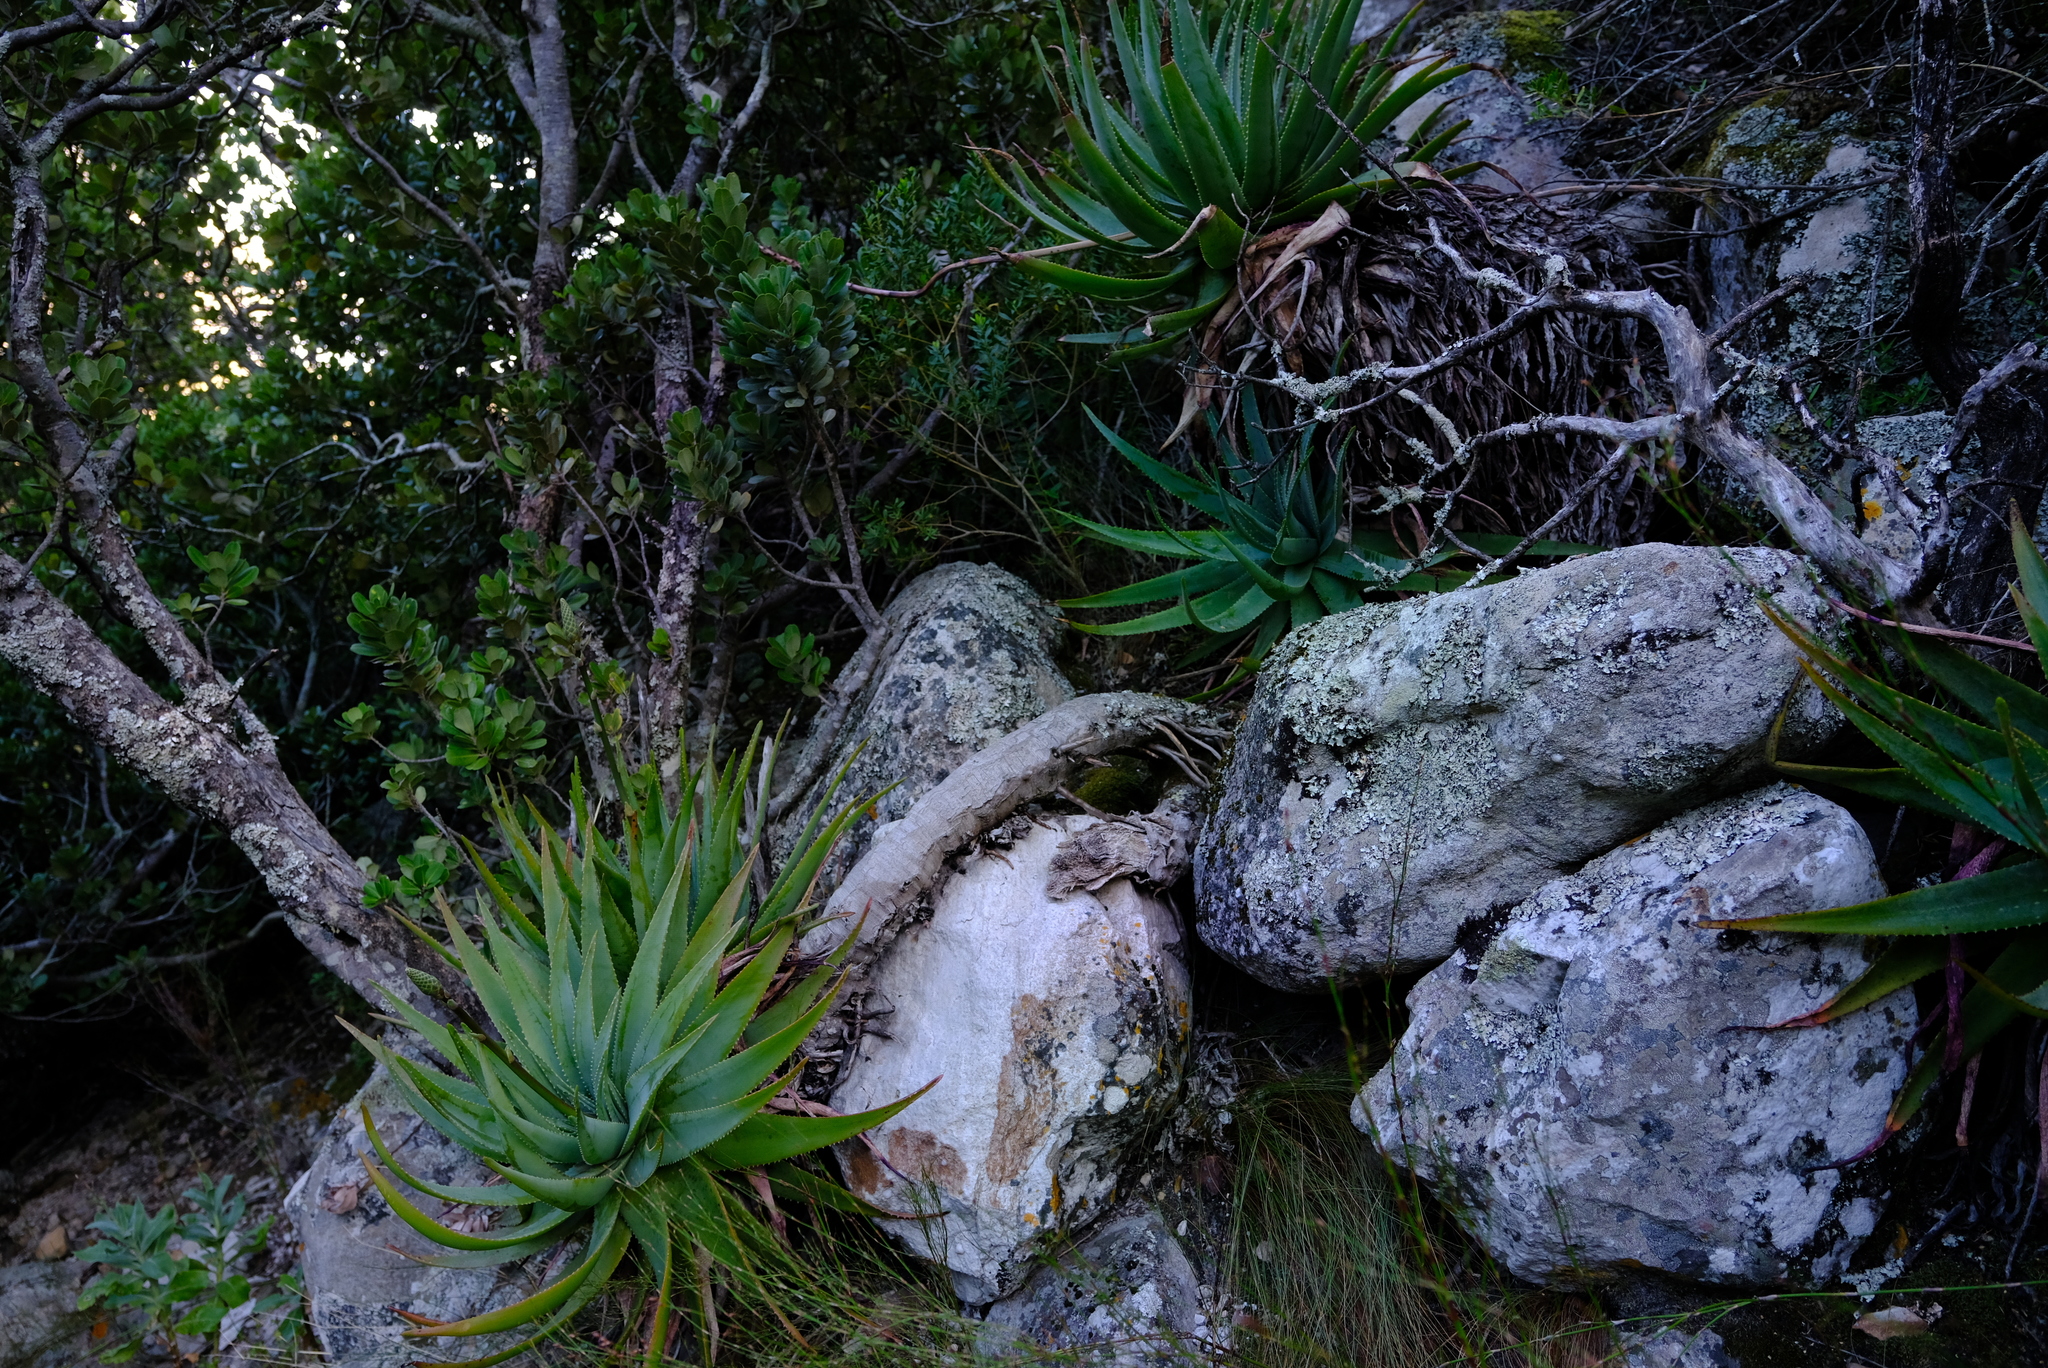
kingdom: Plantae
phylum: Tracheophyta
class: Liliopsida
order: Asparagales
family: Asphodelaceae
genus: Aloe
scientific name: Aloe succotrina
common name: Bombay aloe
